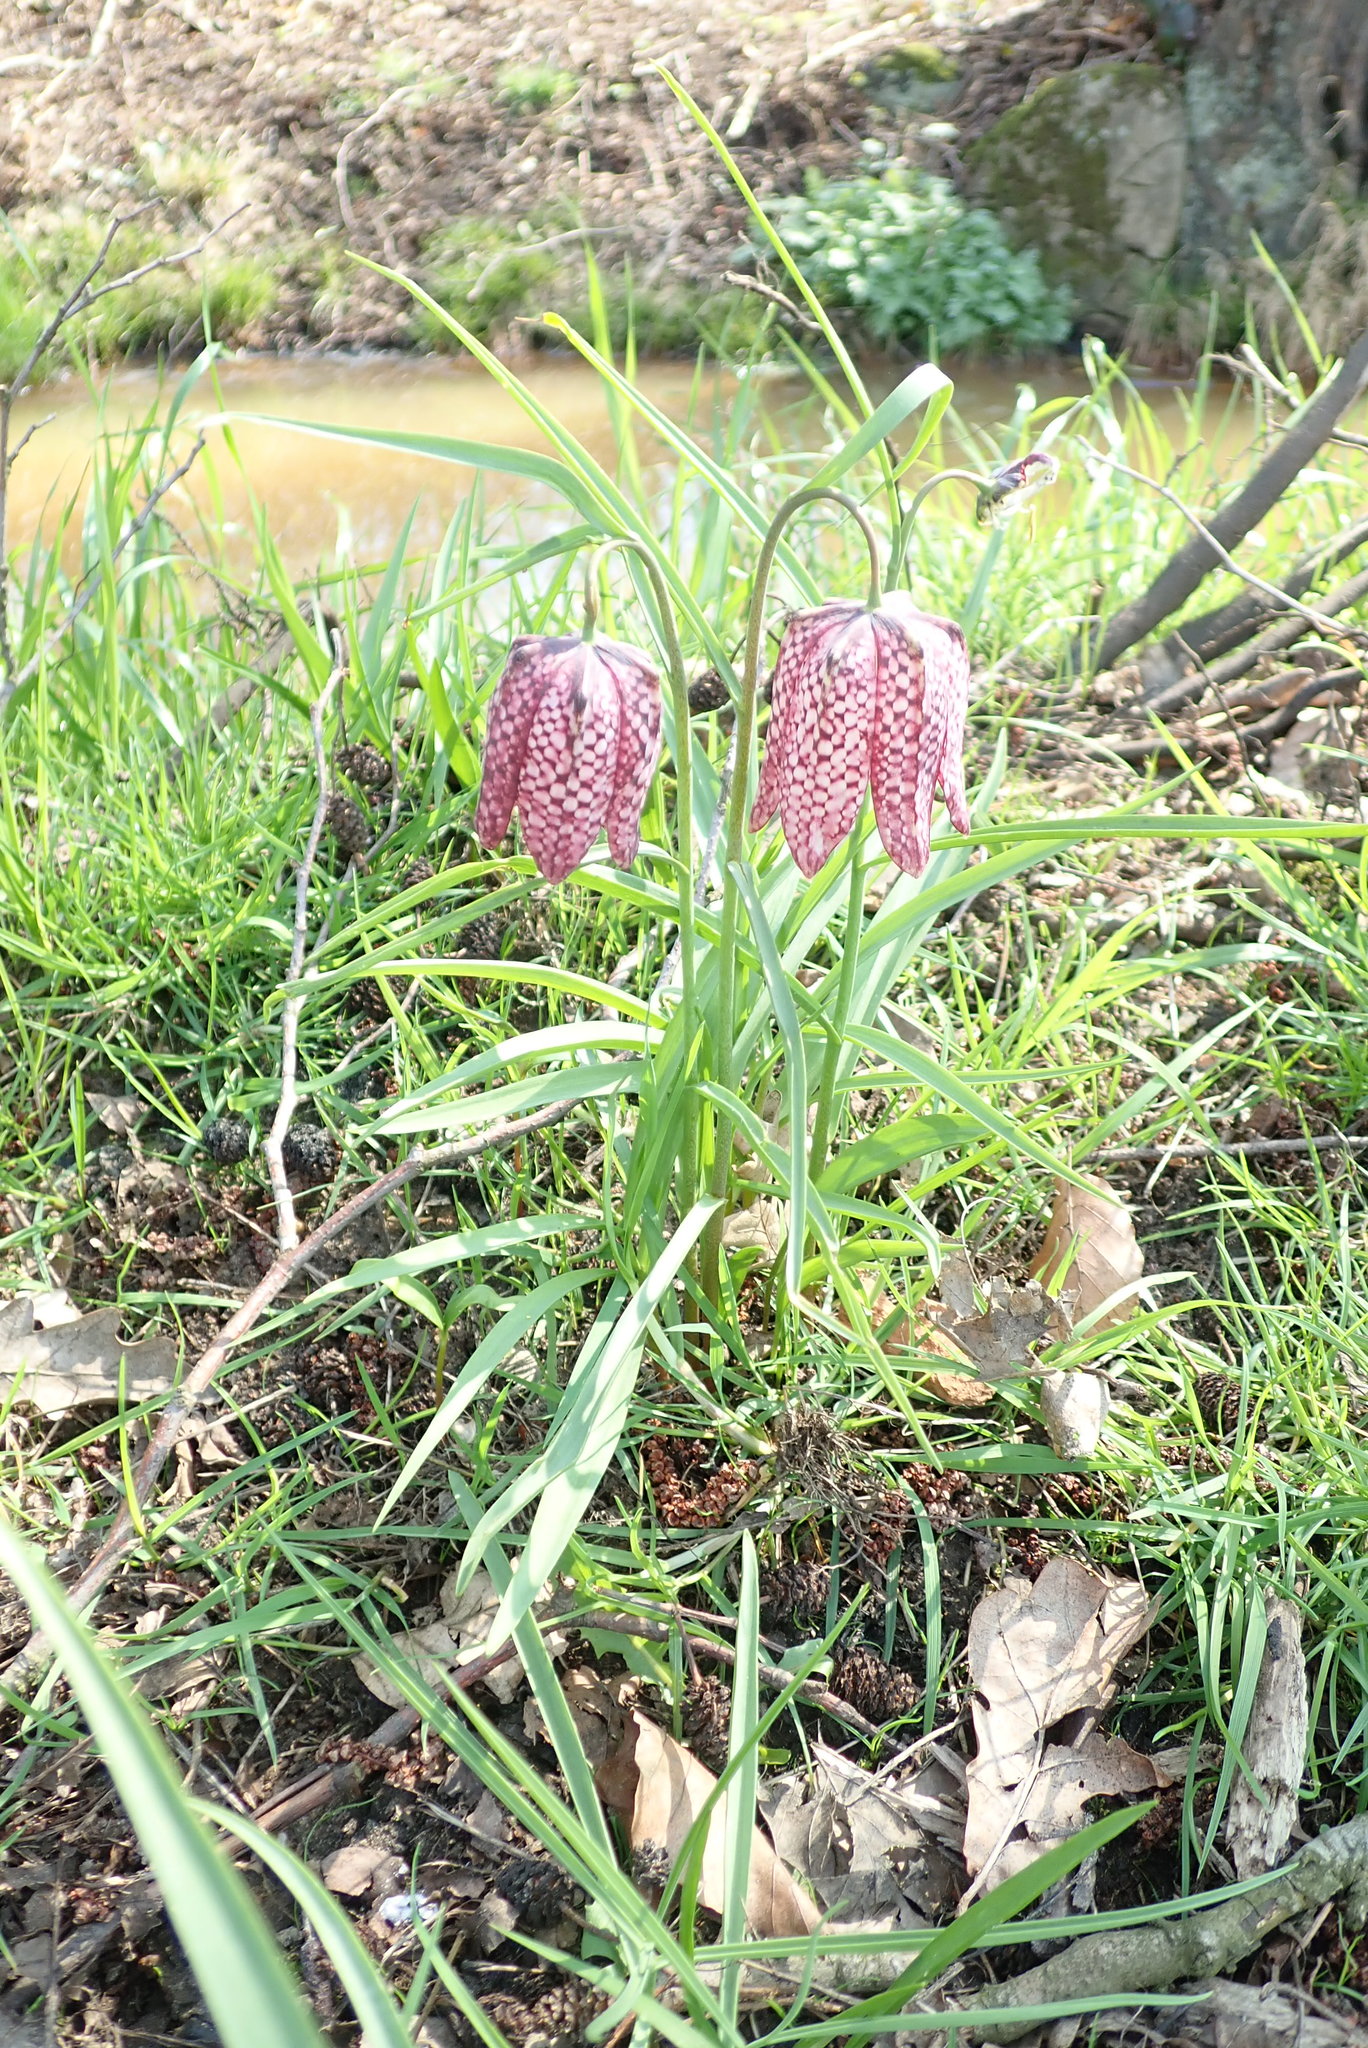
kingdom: Plantae
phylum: Tracheophyta
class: Liliopsida
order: Liliales
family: Liliaceae
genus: Fritillaria
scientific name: Fritillaria meleagris
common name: Fritillary
